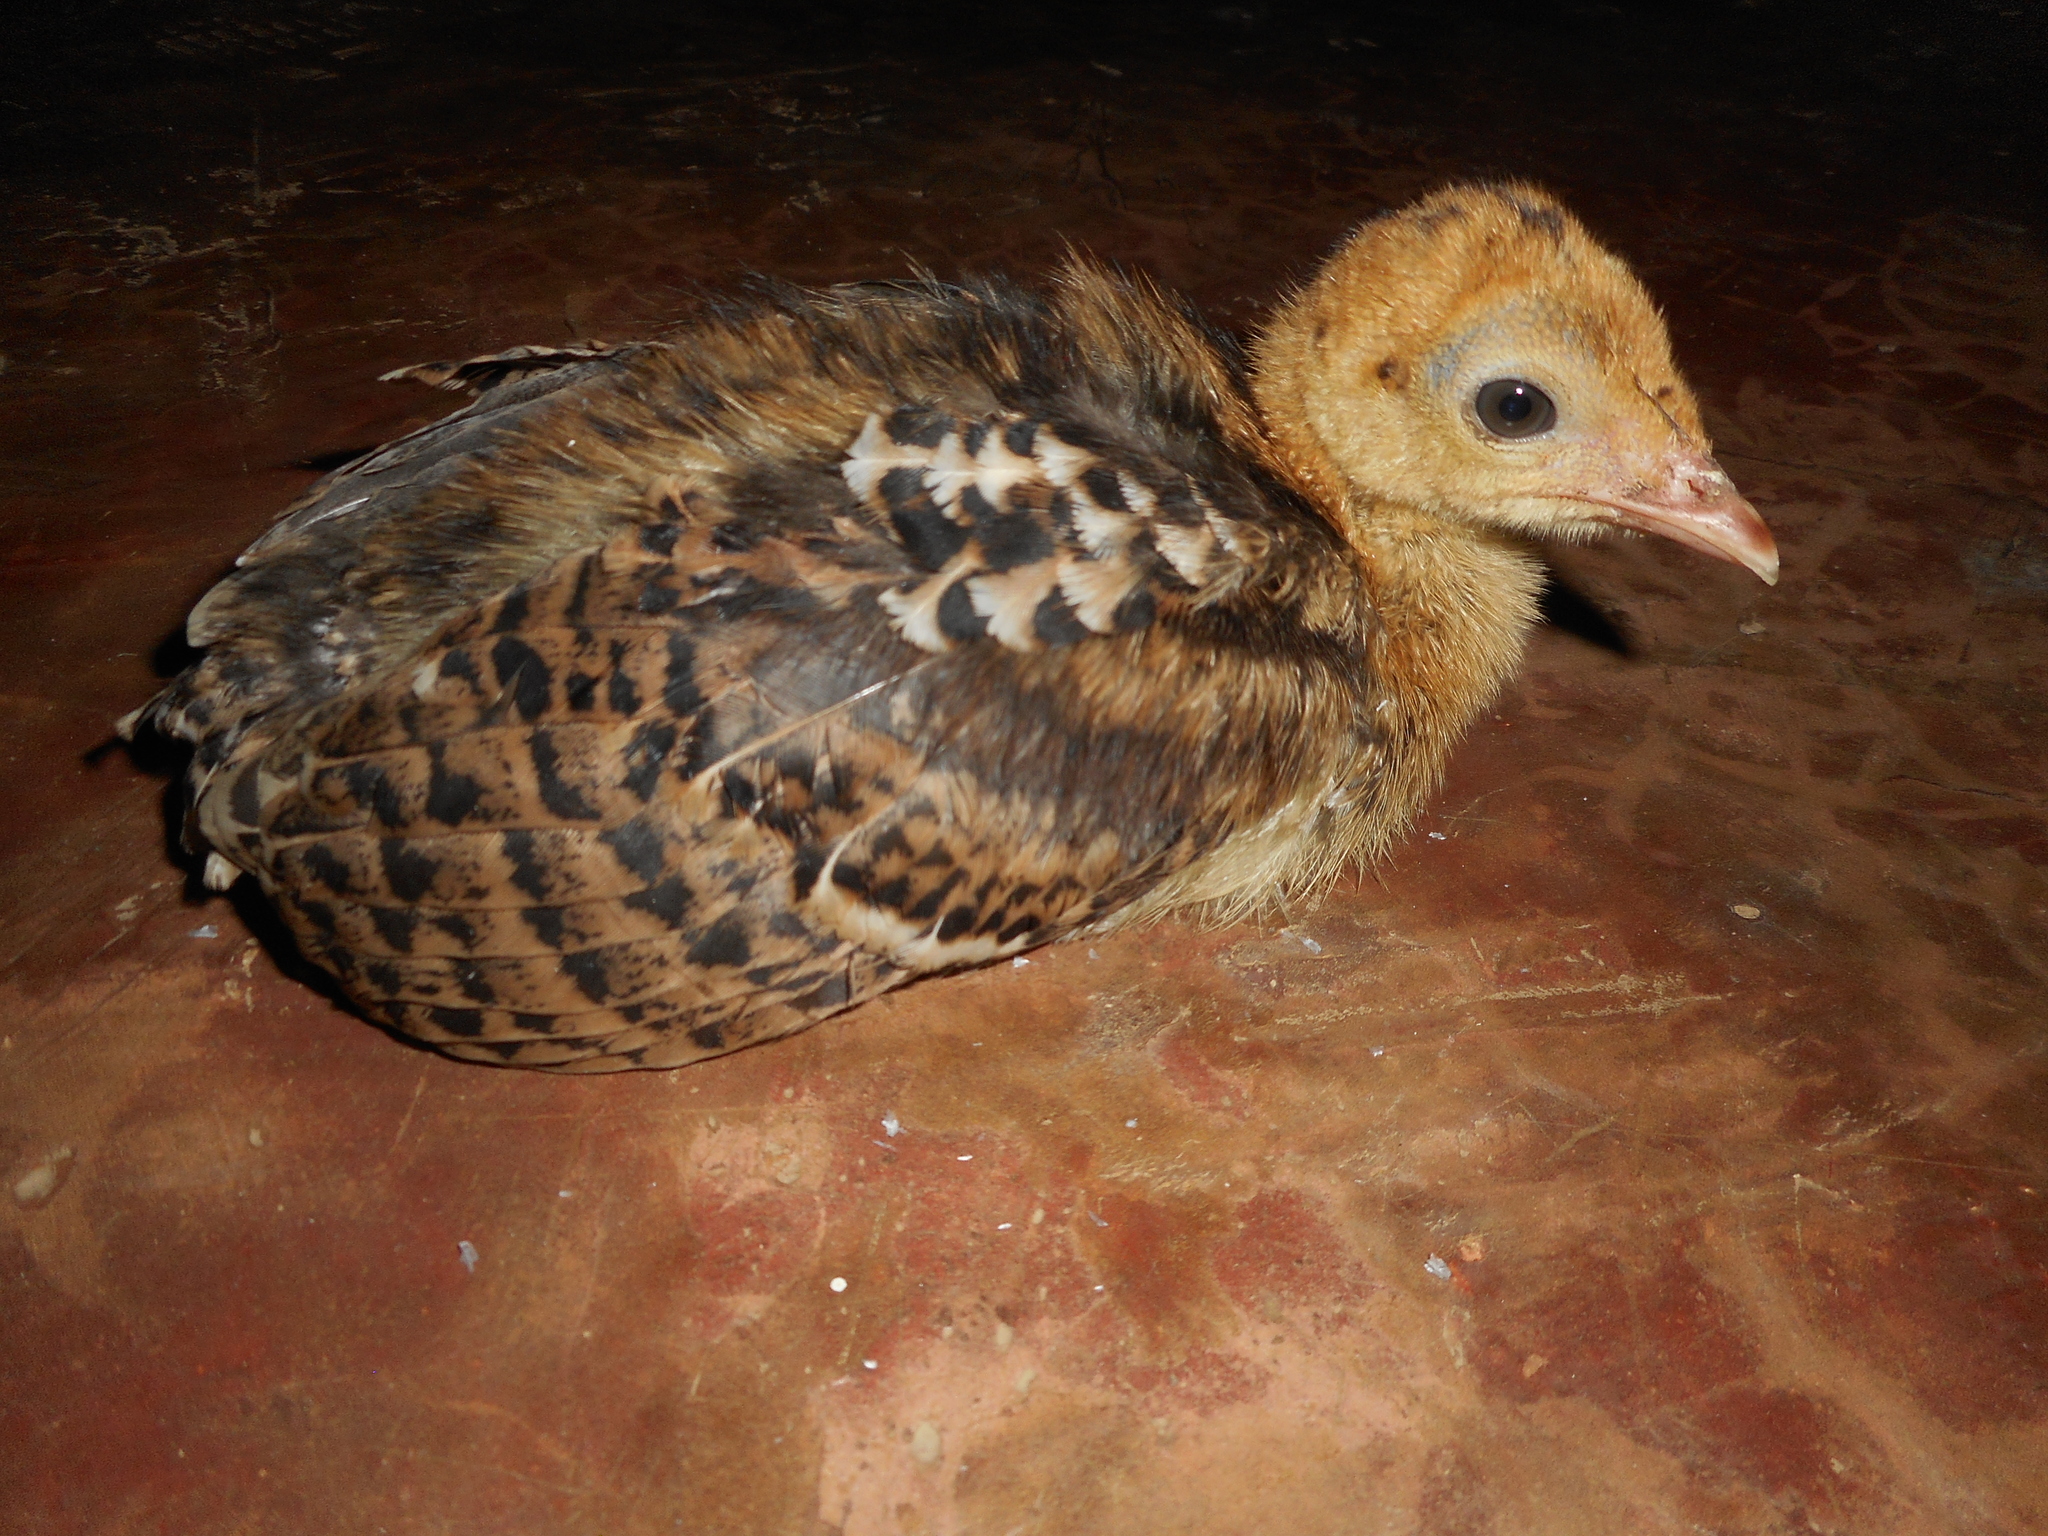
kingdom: Animalia
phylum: Chordata
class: Aves
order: Galliformes
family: Phasianidae
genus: Meleagris
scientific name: Meleagris ocellata
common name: Ocellated turkey
